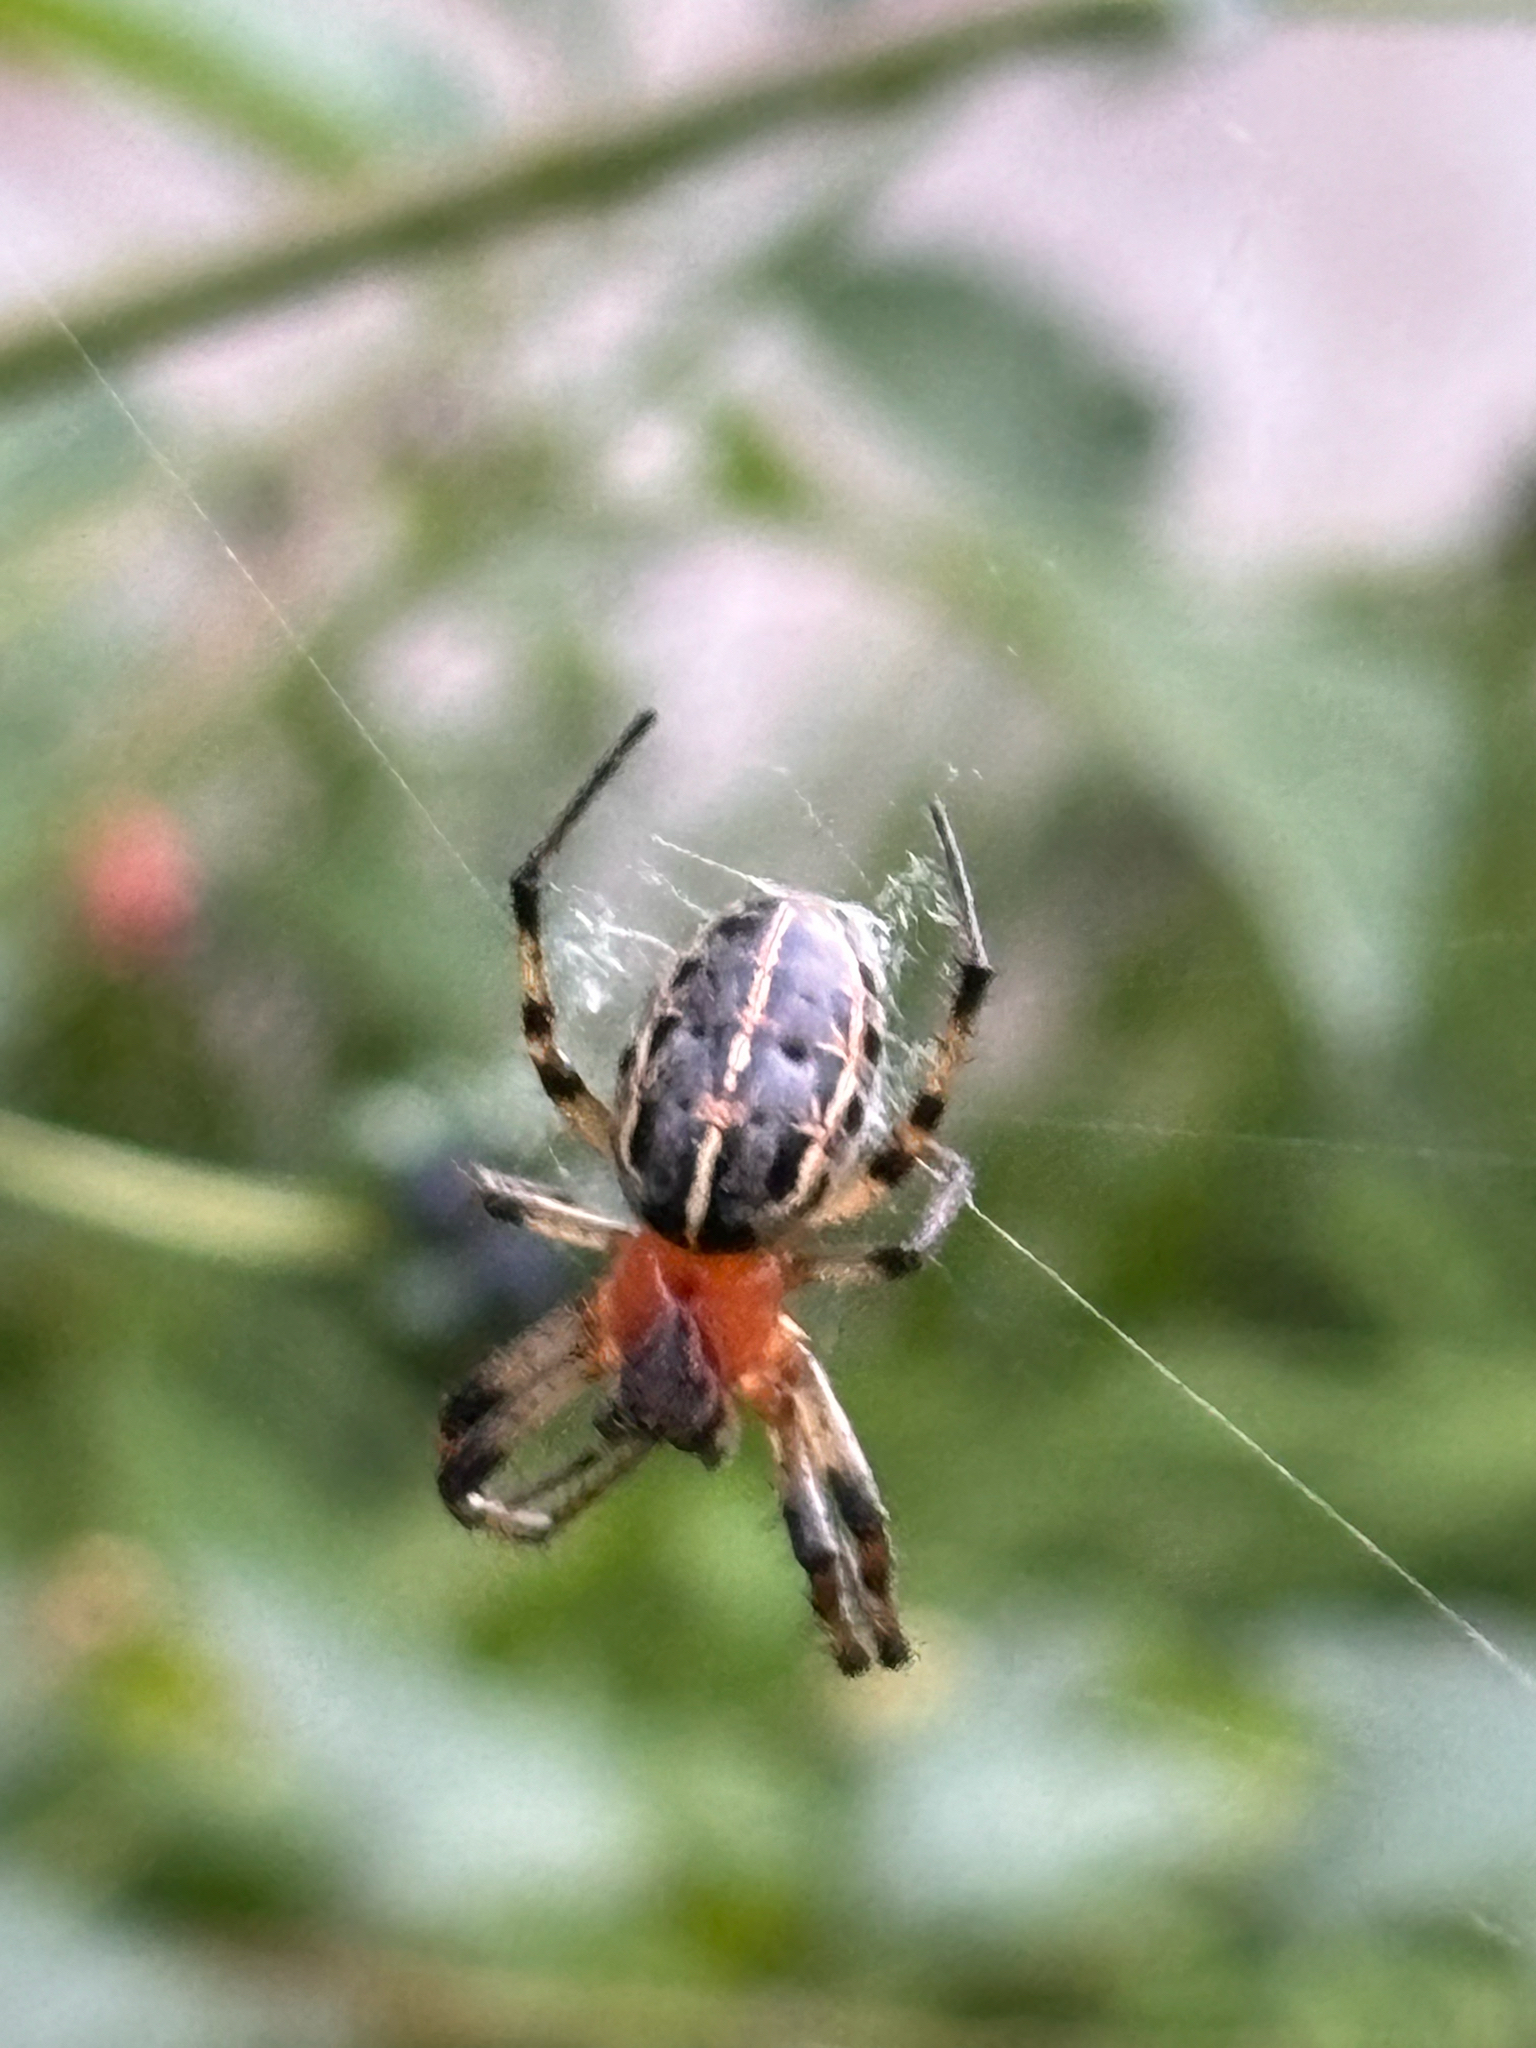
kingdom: Animalia
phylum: Arthropoda
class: Arachnida
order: Araneae
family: Araneidae
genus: Alpaida
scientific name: Alpaida veniliae
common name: Orb weavers
